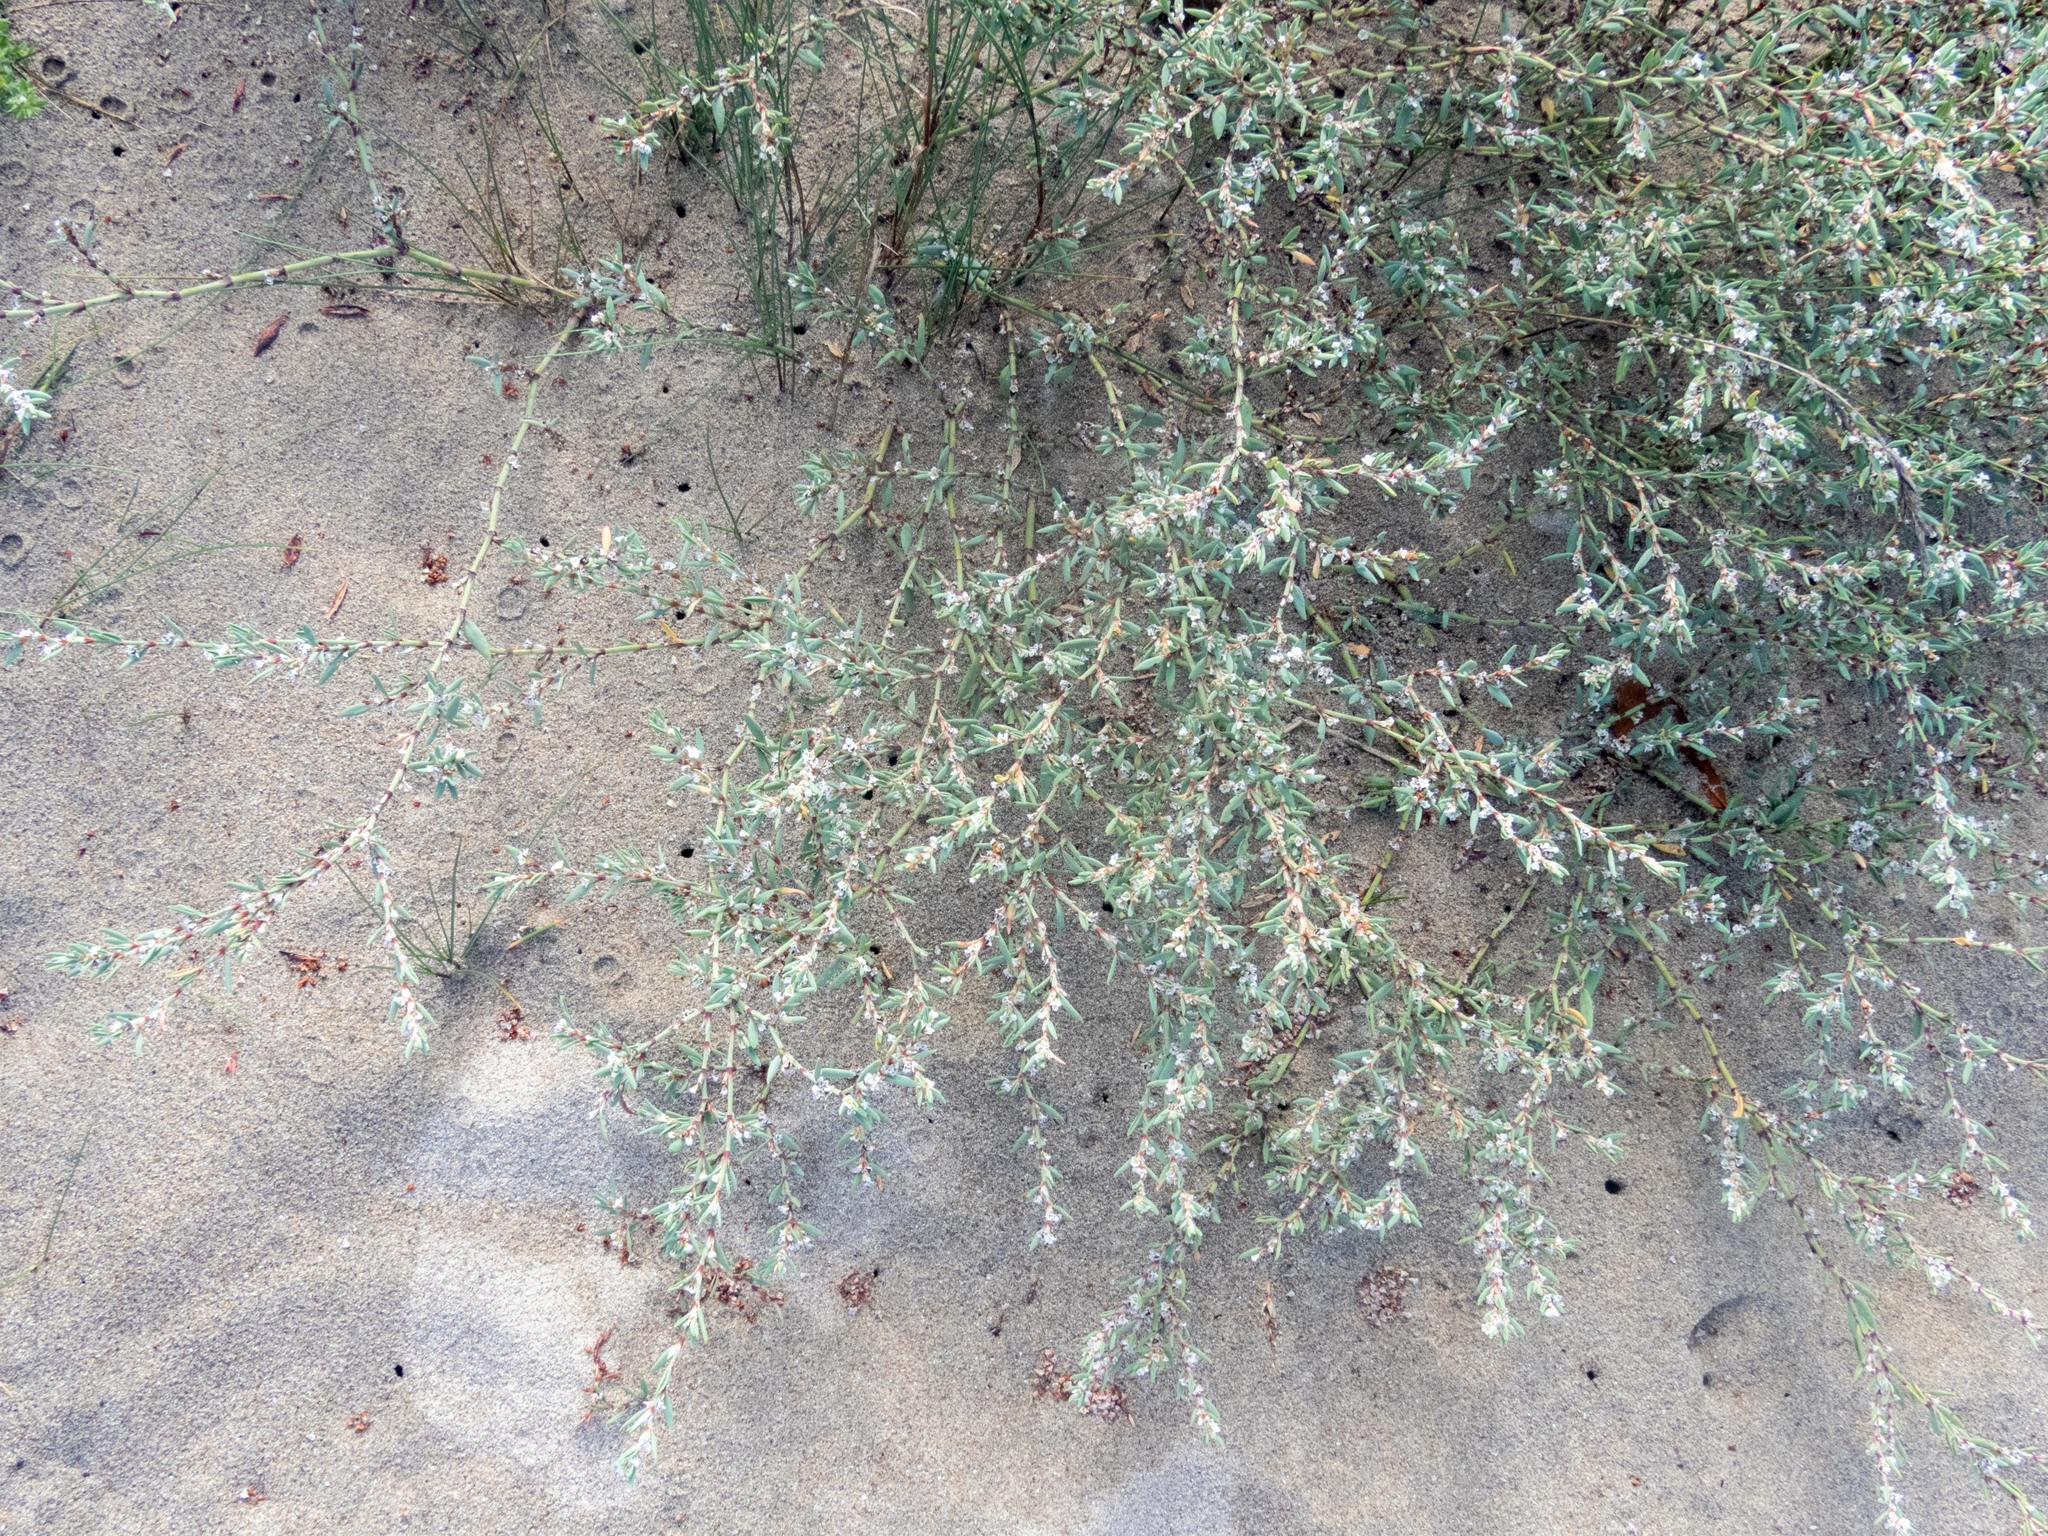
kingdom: Plantae
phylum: Tracheophyta
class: Magnoliopsida
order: Caryophyllales
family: Polygonaceae
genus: Polygonum
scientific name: Polygonum maritimum
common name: Sea knotgrass
